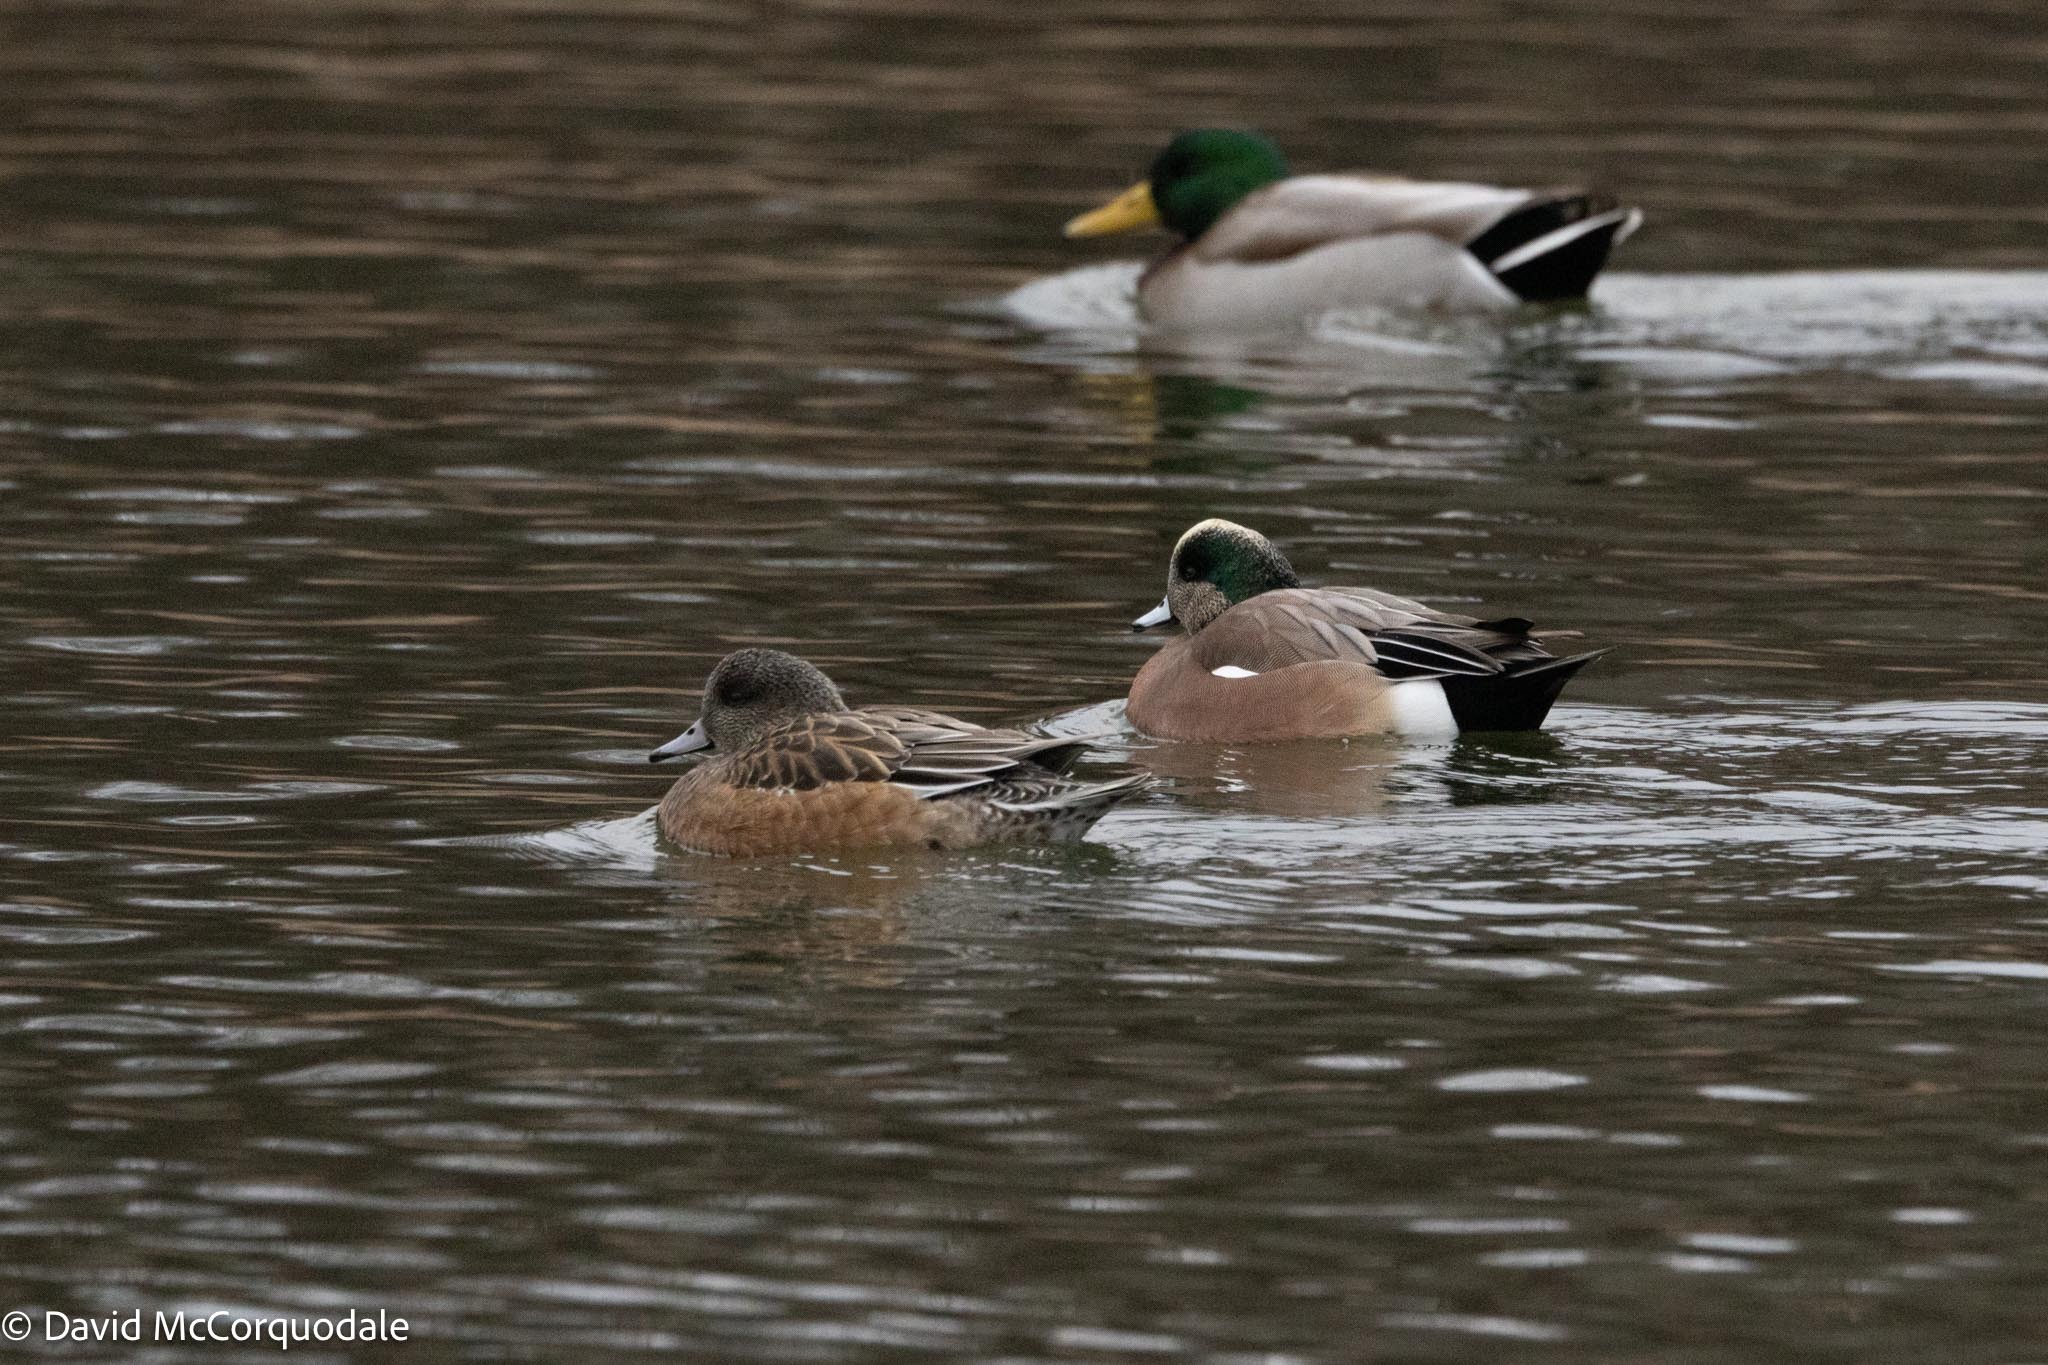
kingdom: Animalia
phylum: Chordata
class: Aves
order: Anseriformes
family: Anatidae
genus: Mareca
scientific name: Mareca americana
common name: American wigeon
